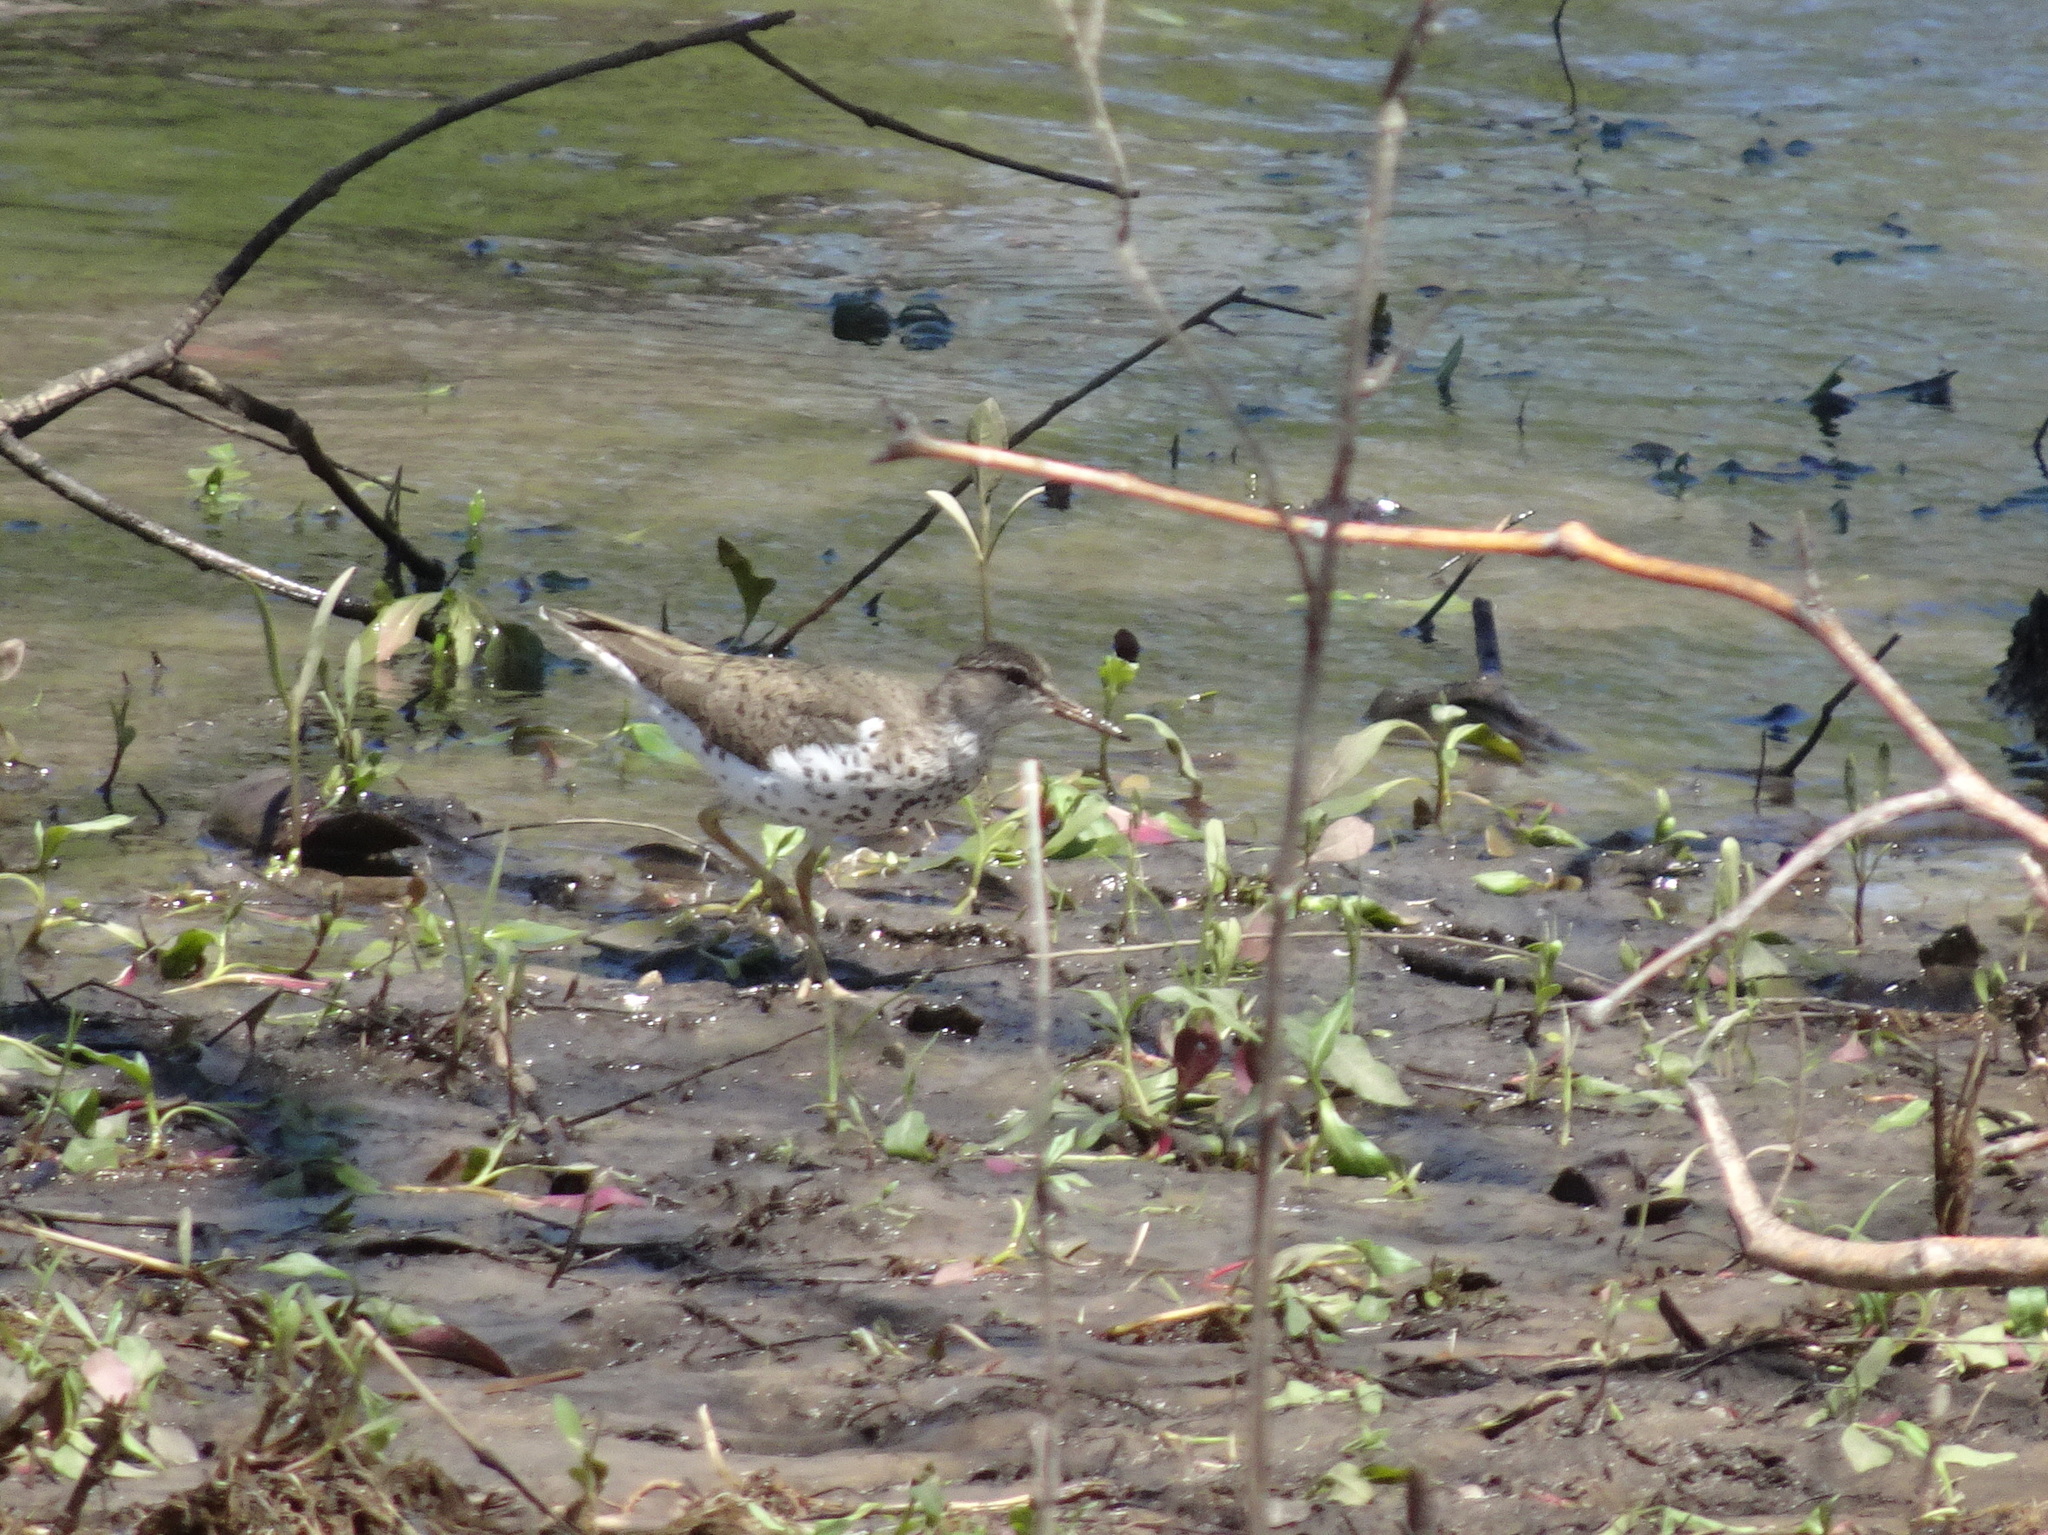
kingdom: Animalia
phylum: Chordata
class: Aves
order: Charadriiformes
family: Scolopacidae
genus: Actitis
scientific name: Actitis macularius
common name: Spotted sandpiper
